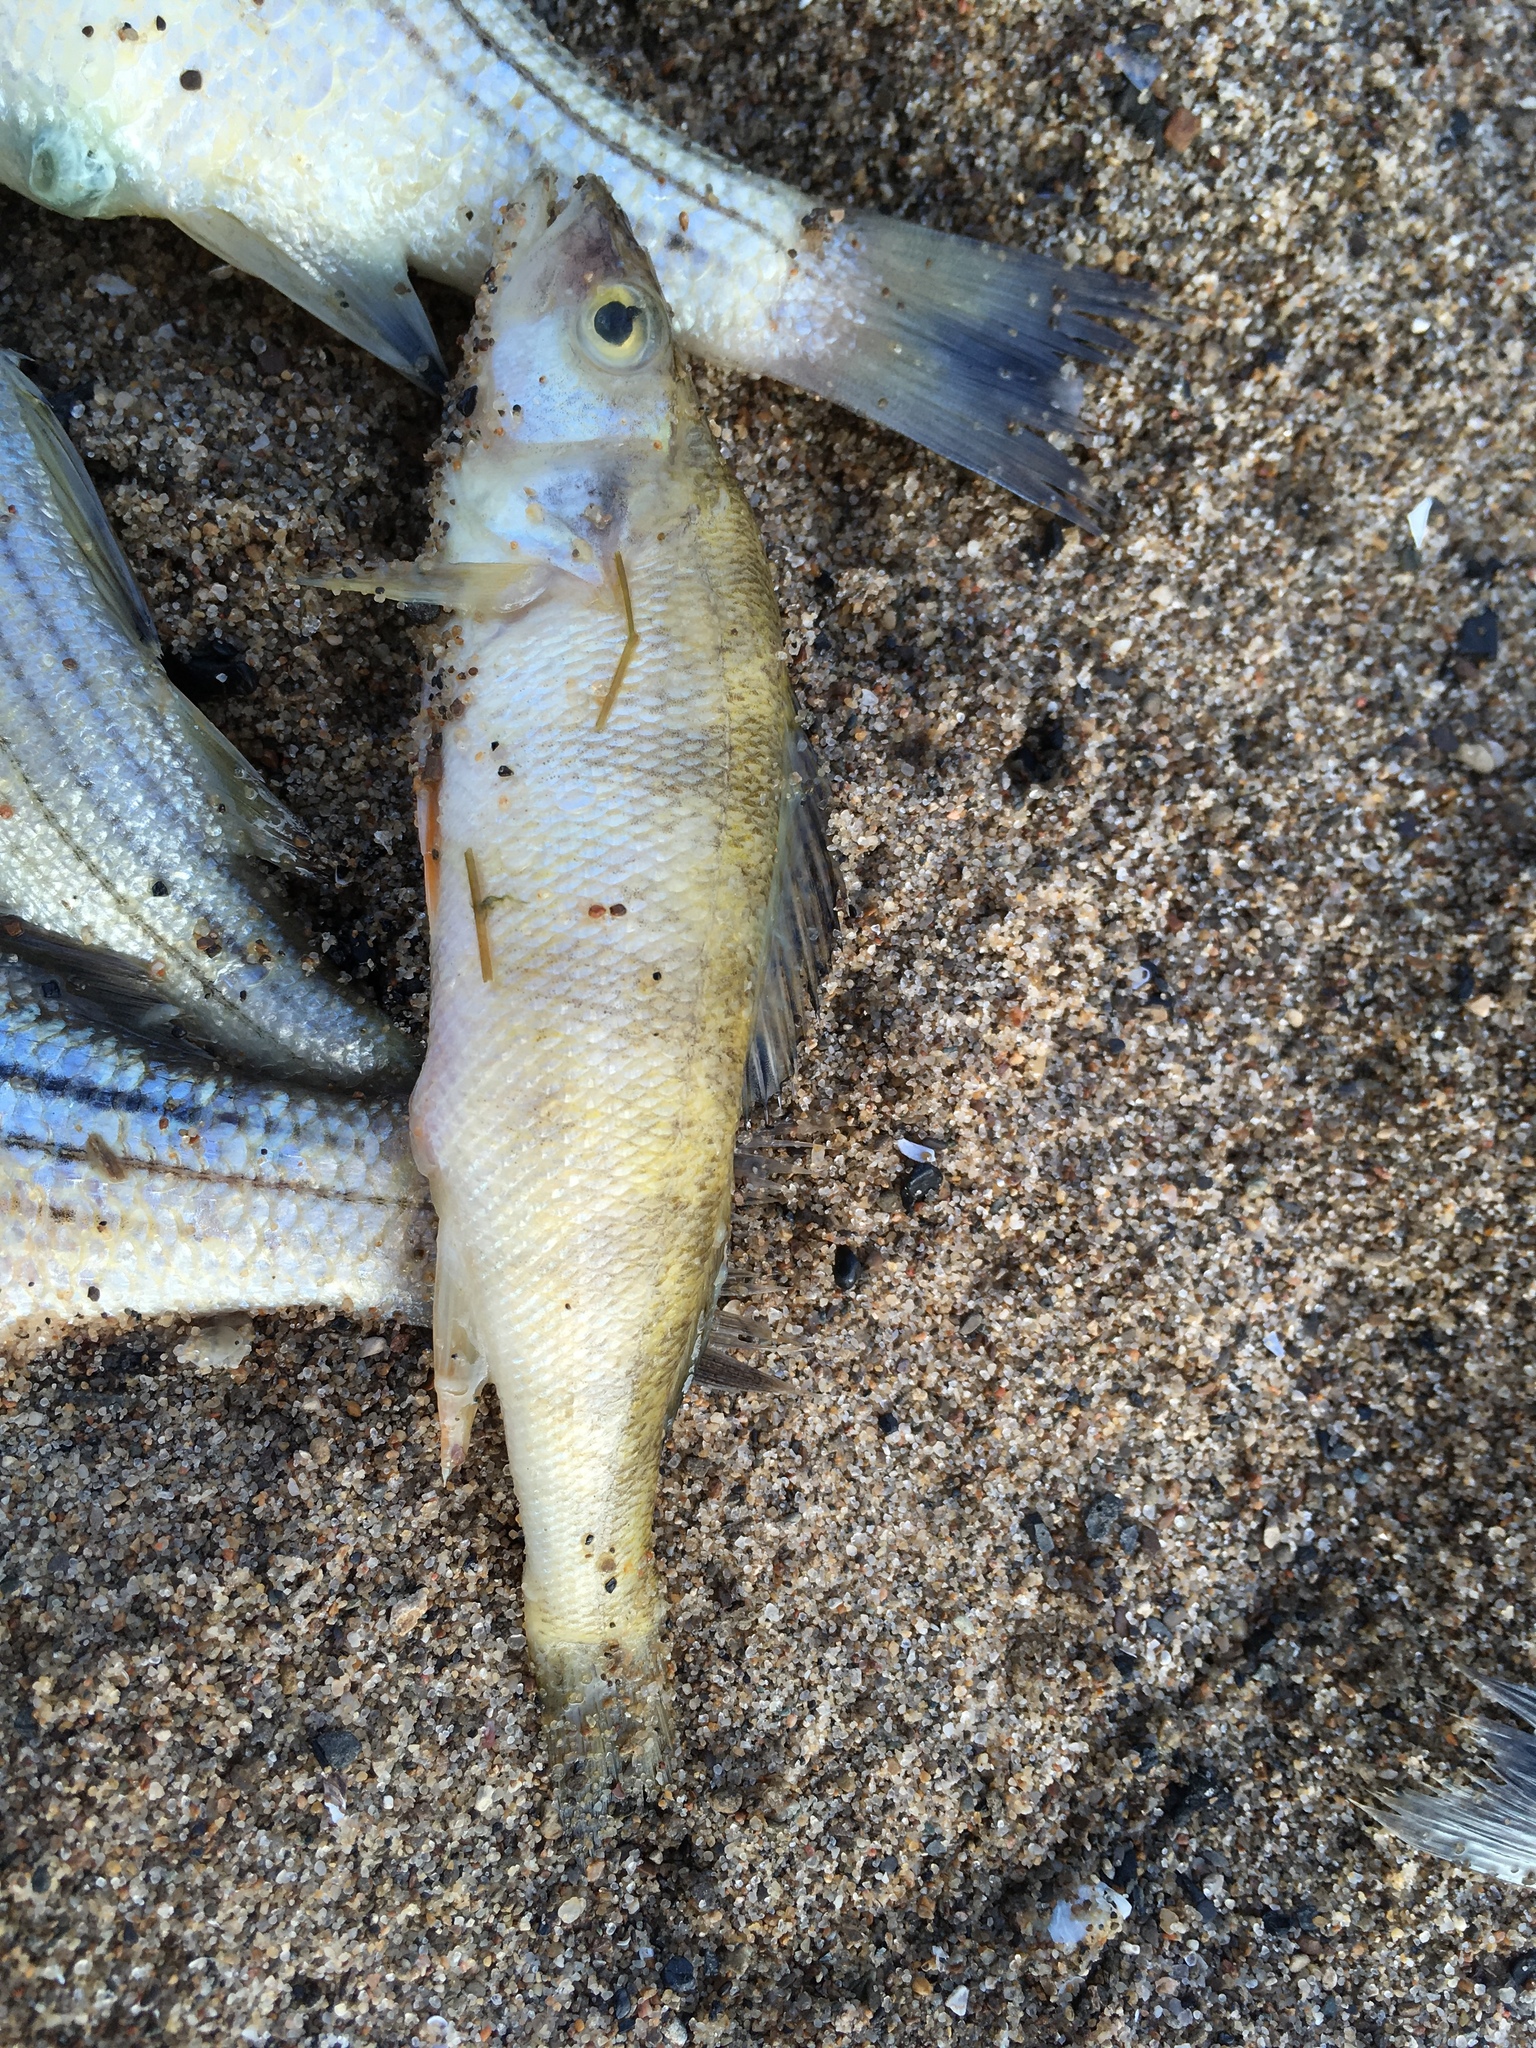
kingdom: Animalia
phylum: Chordata
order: Perciformes
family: Percidae
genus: Perca
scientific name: Perca flavescens
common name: Yellow perch
